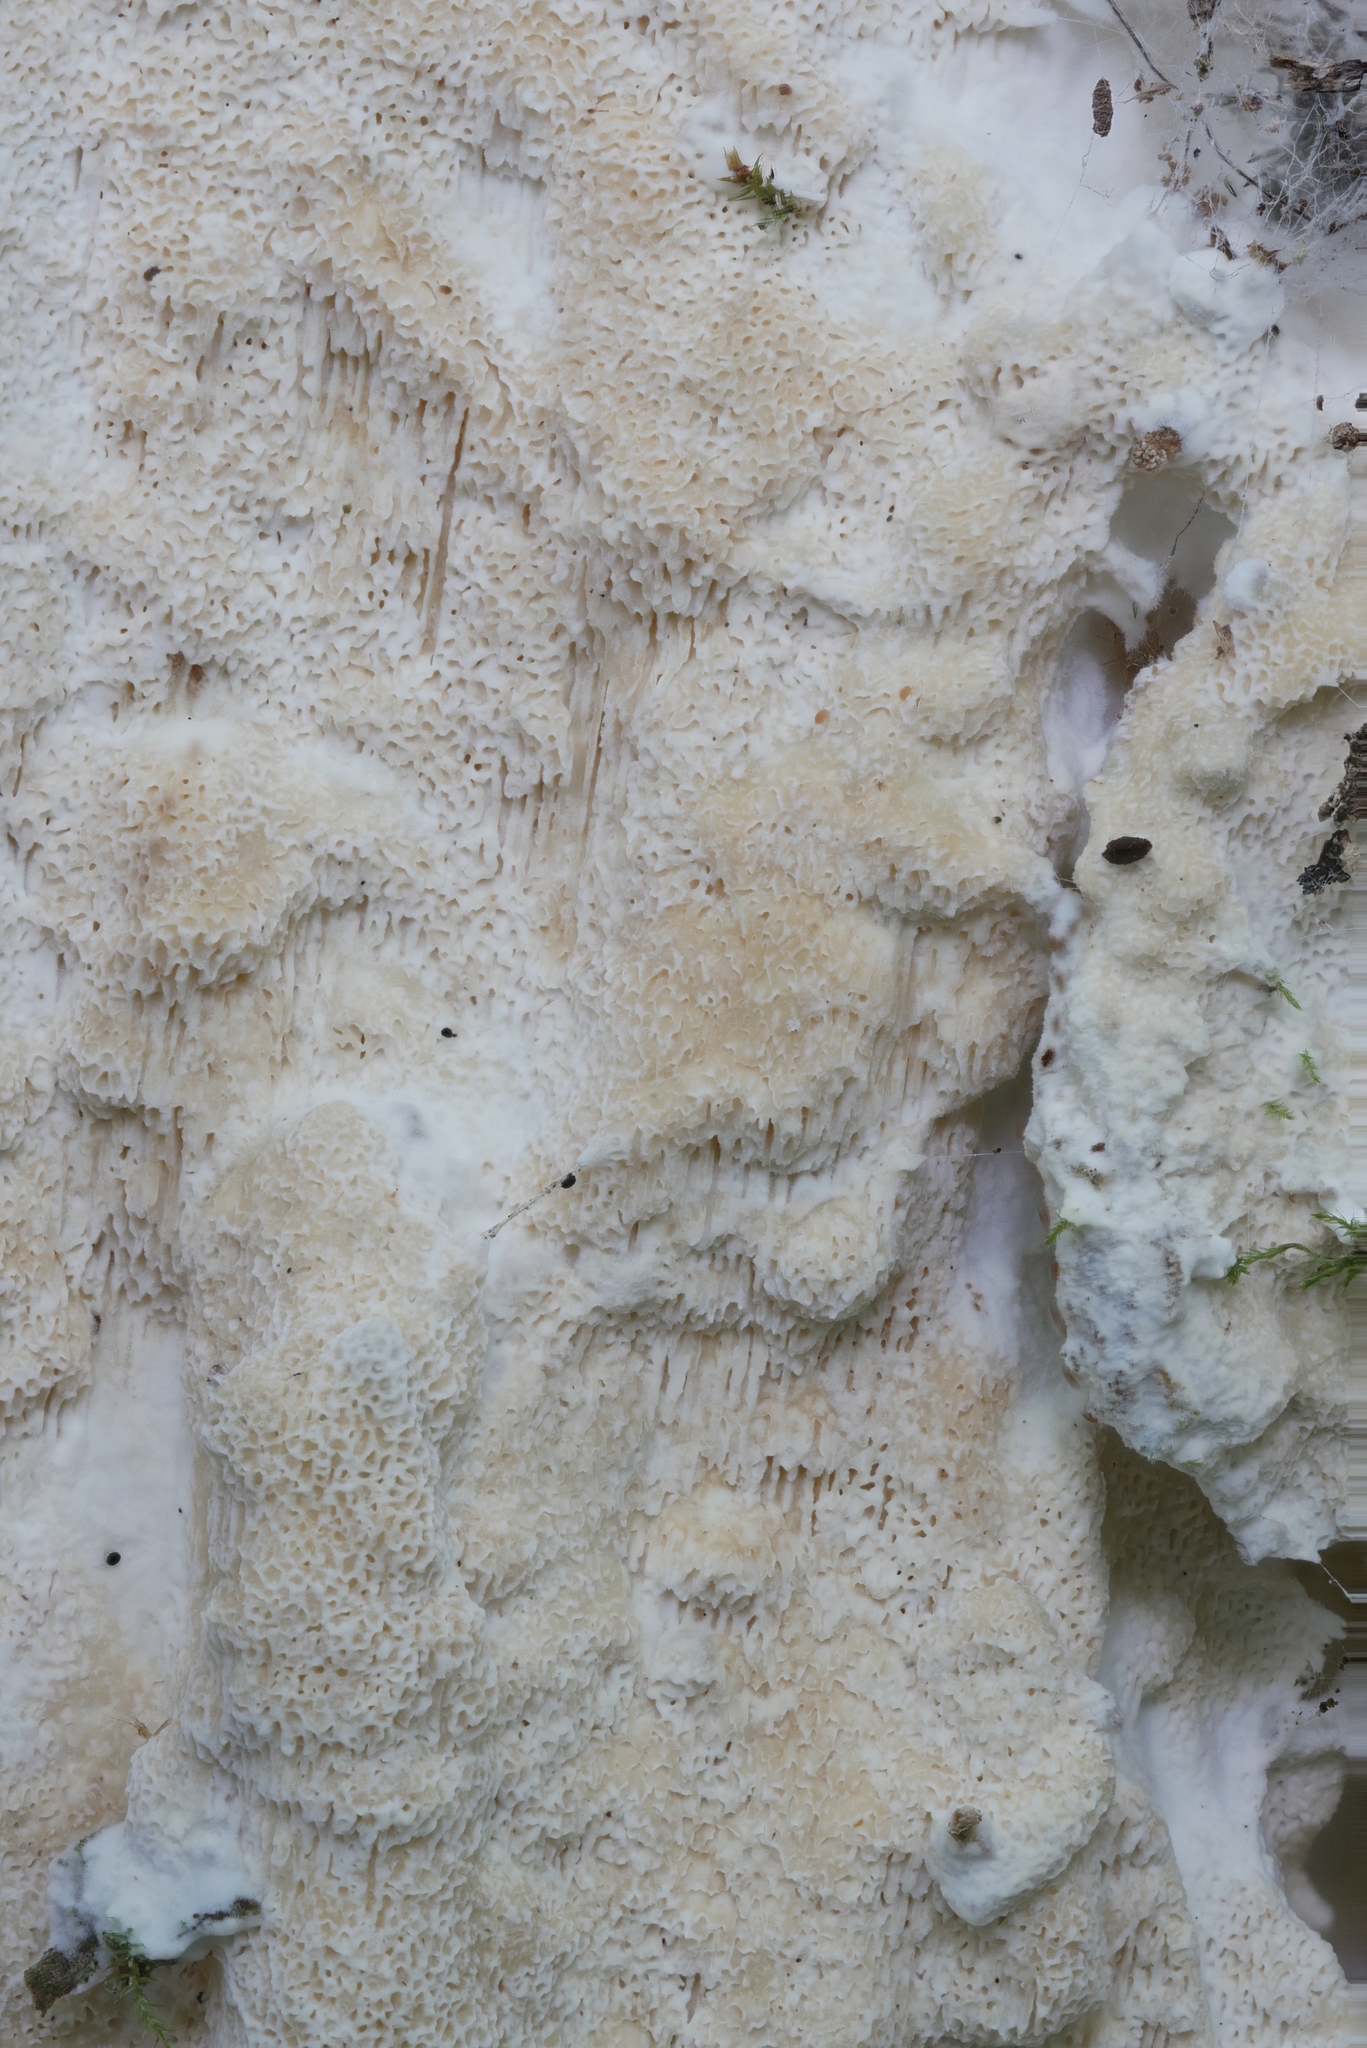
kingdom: Fungi
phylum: Basidiomycota
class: Agaricomycetes
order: Polyporales
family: Polyporaceae
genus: Poriella
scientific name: Poriella subacida
